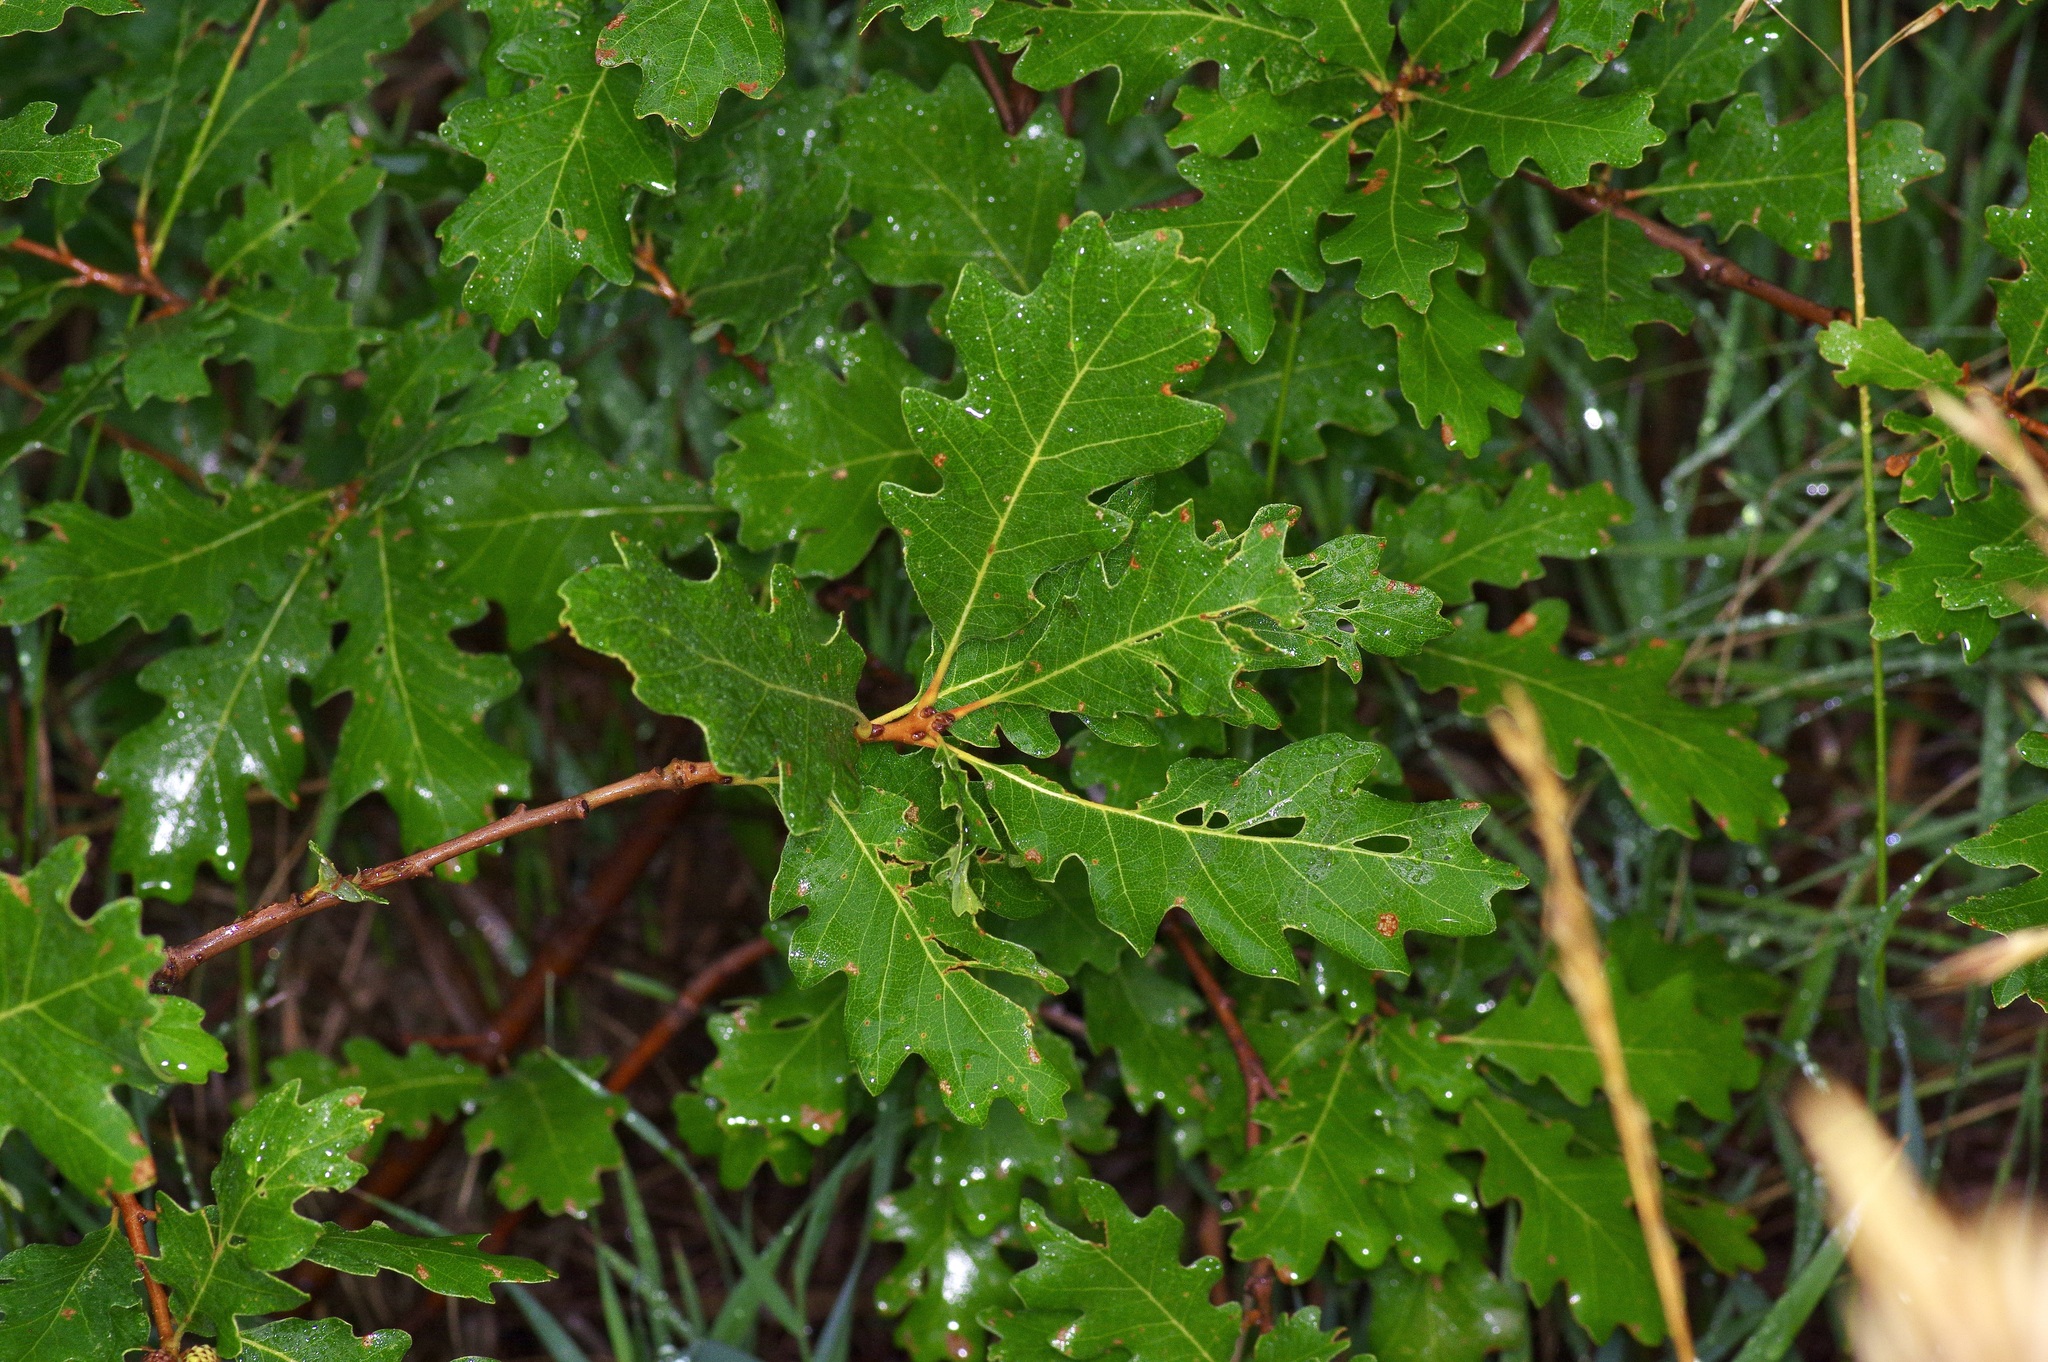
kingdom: Plantae
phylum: Tracheophyta
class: Magnoliopsida
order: Fagales
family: Fagaceae
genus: Quercus
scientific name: Quercus gambelii
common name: Gambel oak
